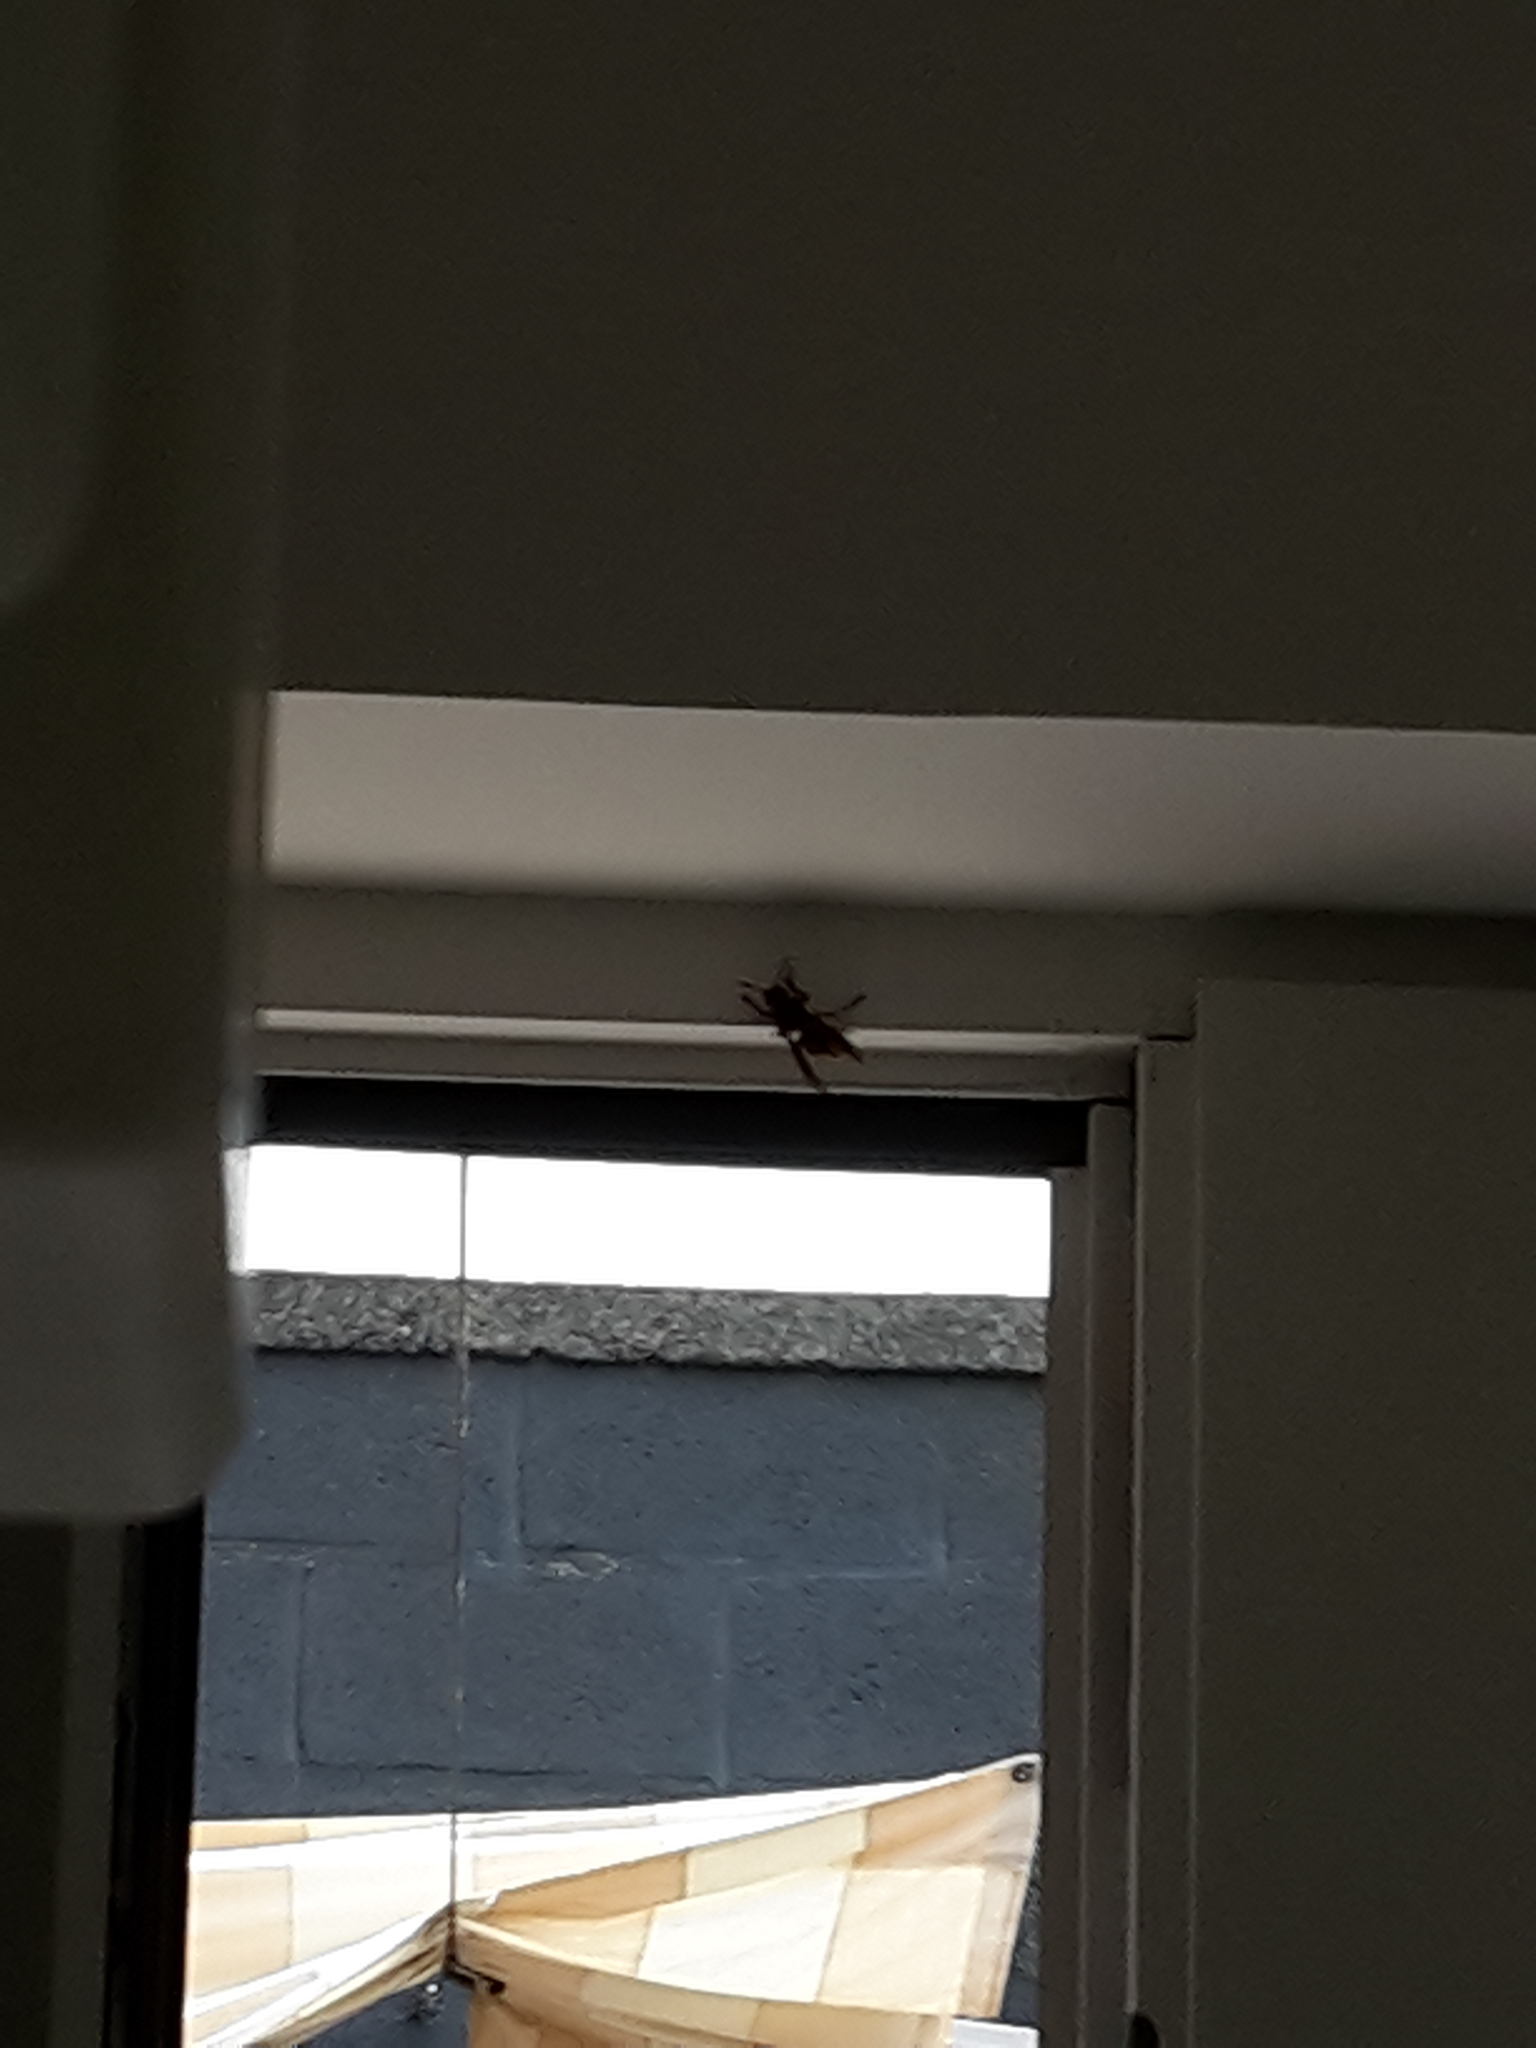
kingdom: Animalia
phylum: Arthropoda
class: Insecta
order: Hymenoptera
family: Vespidae
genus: Vespa
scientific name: Vespa crabro
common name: Hornet
